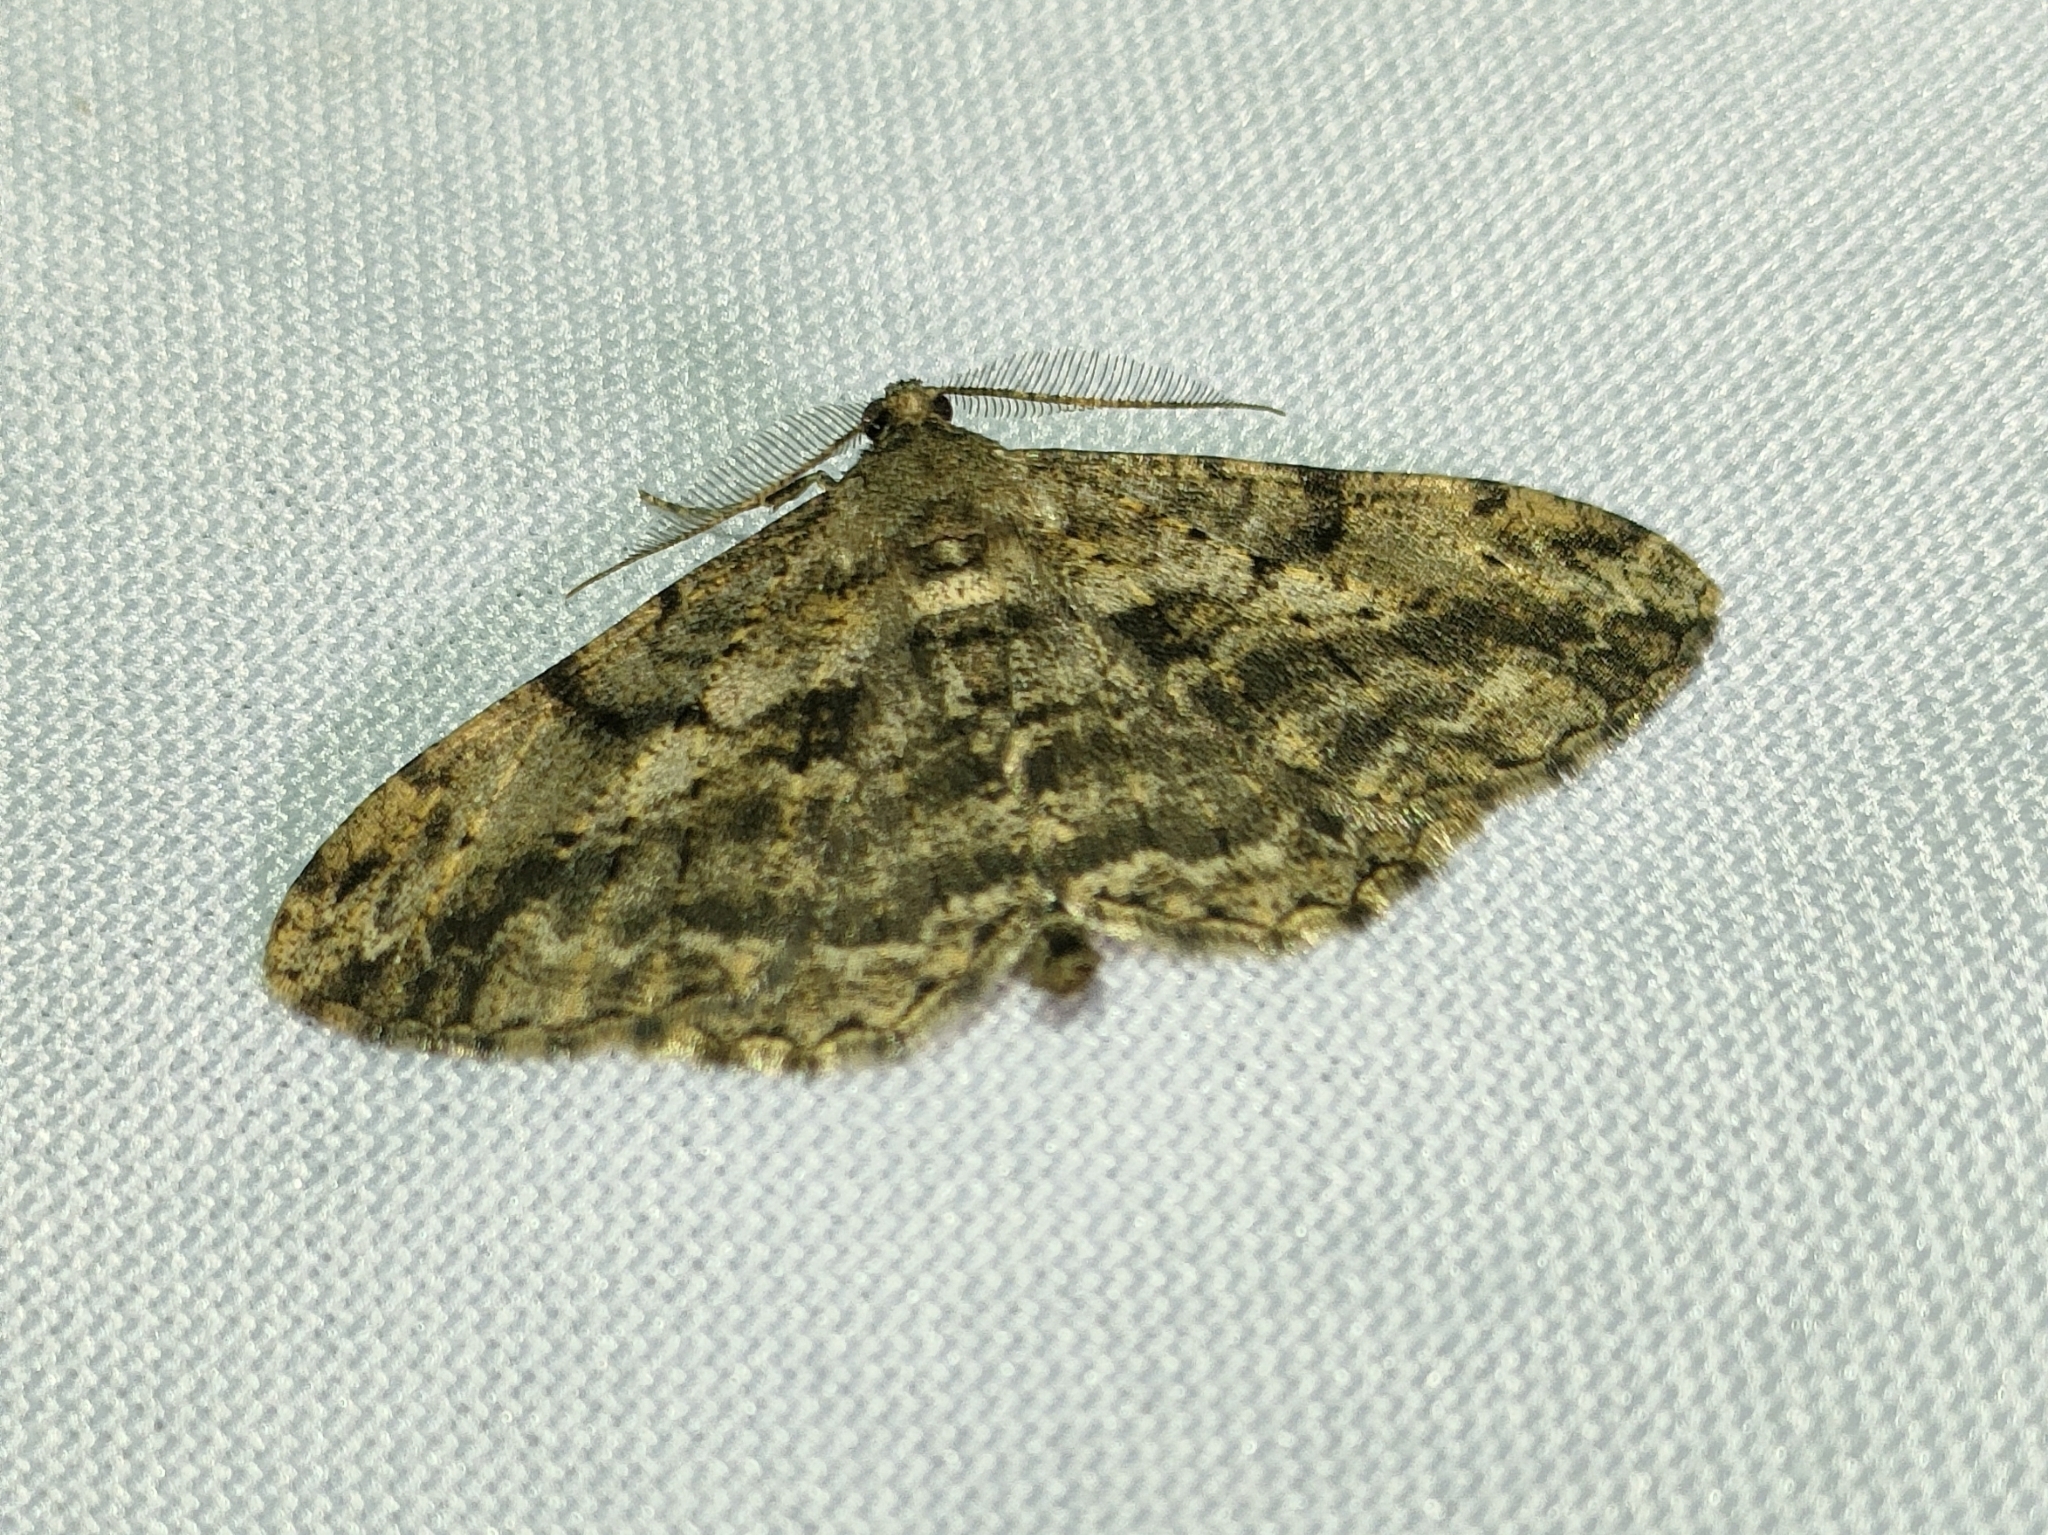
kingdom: Animalia
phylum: Arthropoda
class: Insecta
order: Lepidoptera
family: Geometridae
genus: Peribatodes
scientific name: Peribatodes rhomboidaria
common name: Willow beauty
